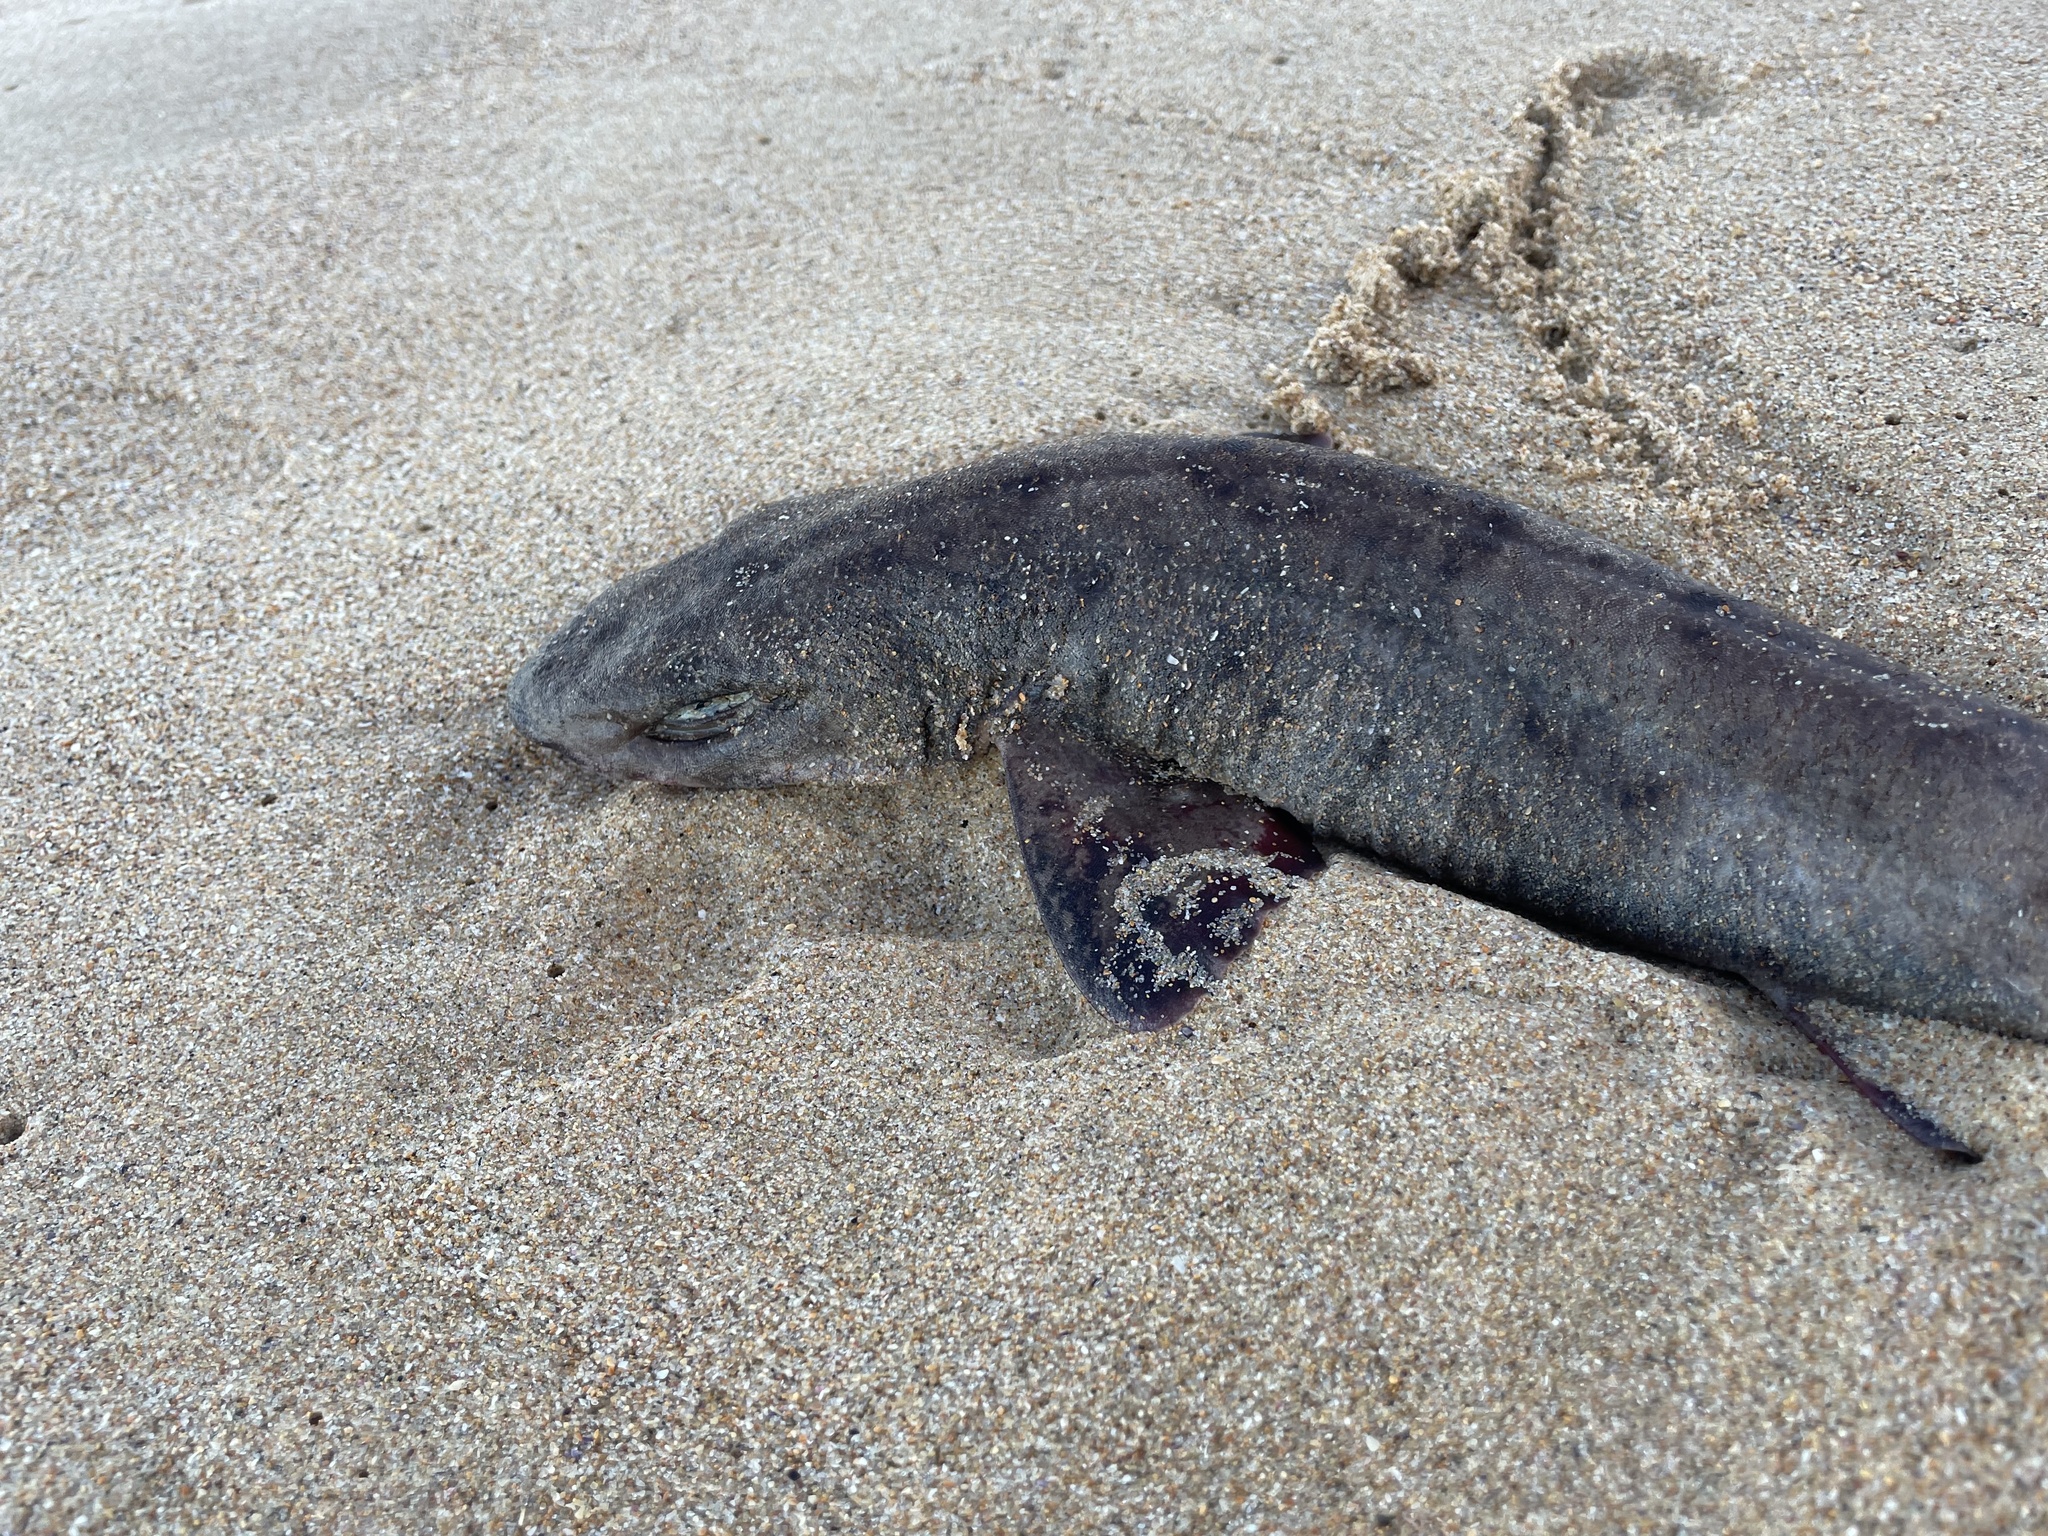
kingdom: Animalia
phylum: Chordata
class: Elasmobranchii
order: Carcharhiniformes
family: Scyliorhinidae
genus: Asymbolus
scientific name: Asymbolus analis
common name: Australian spotted catshark
